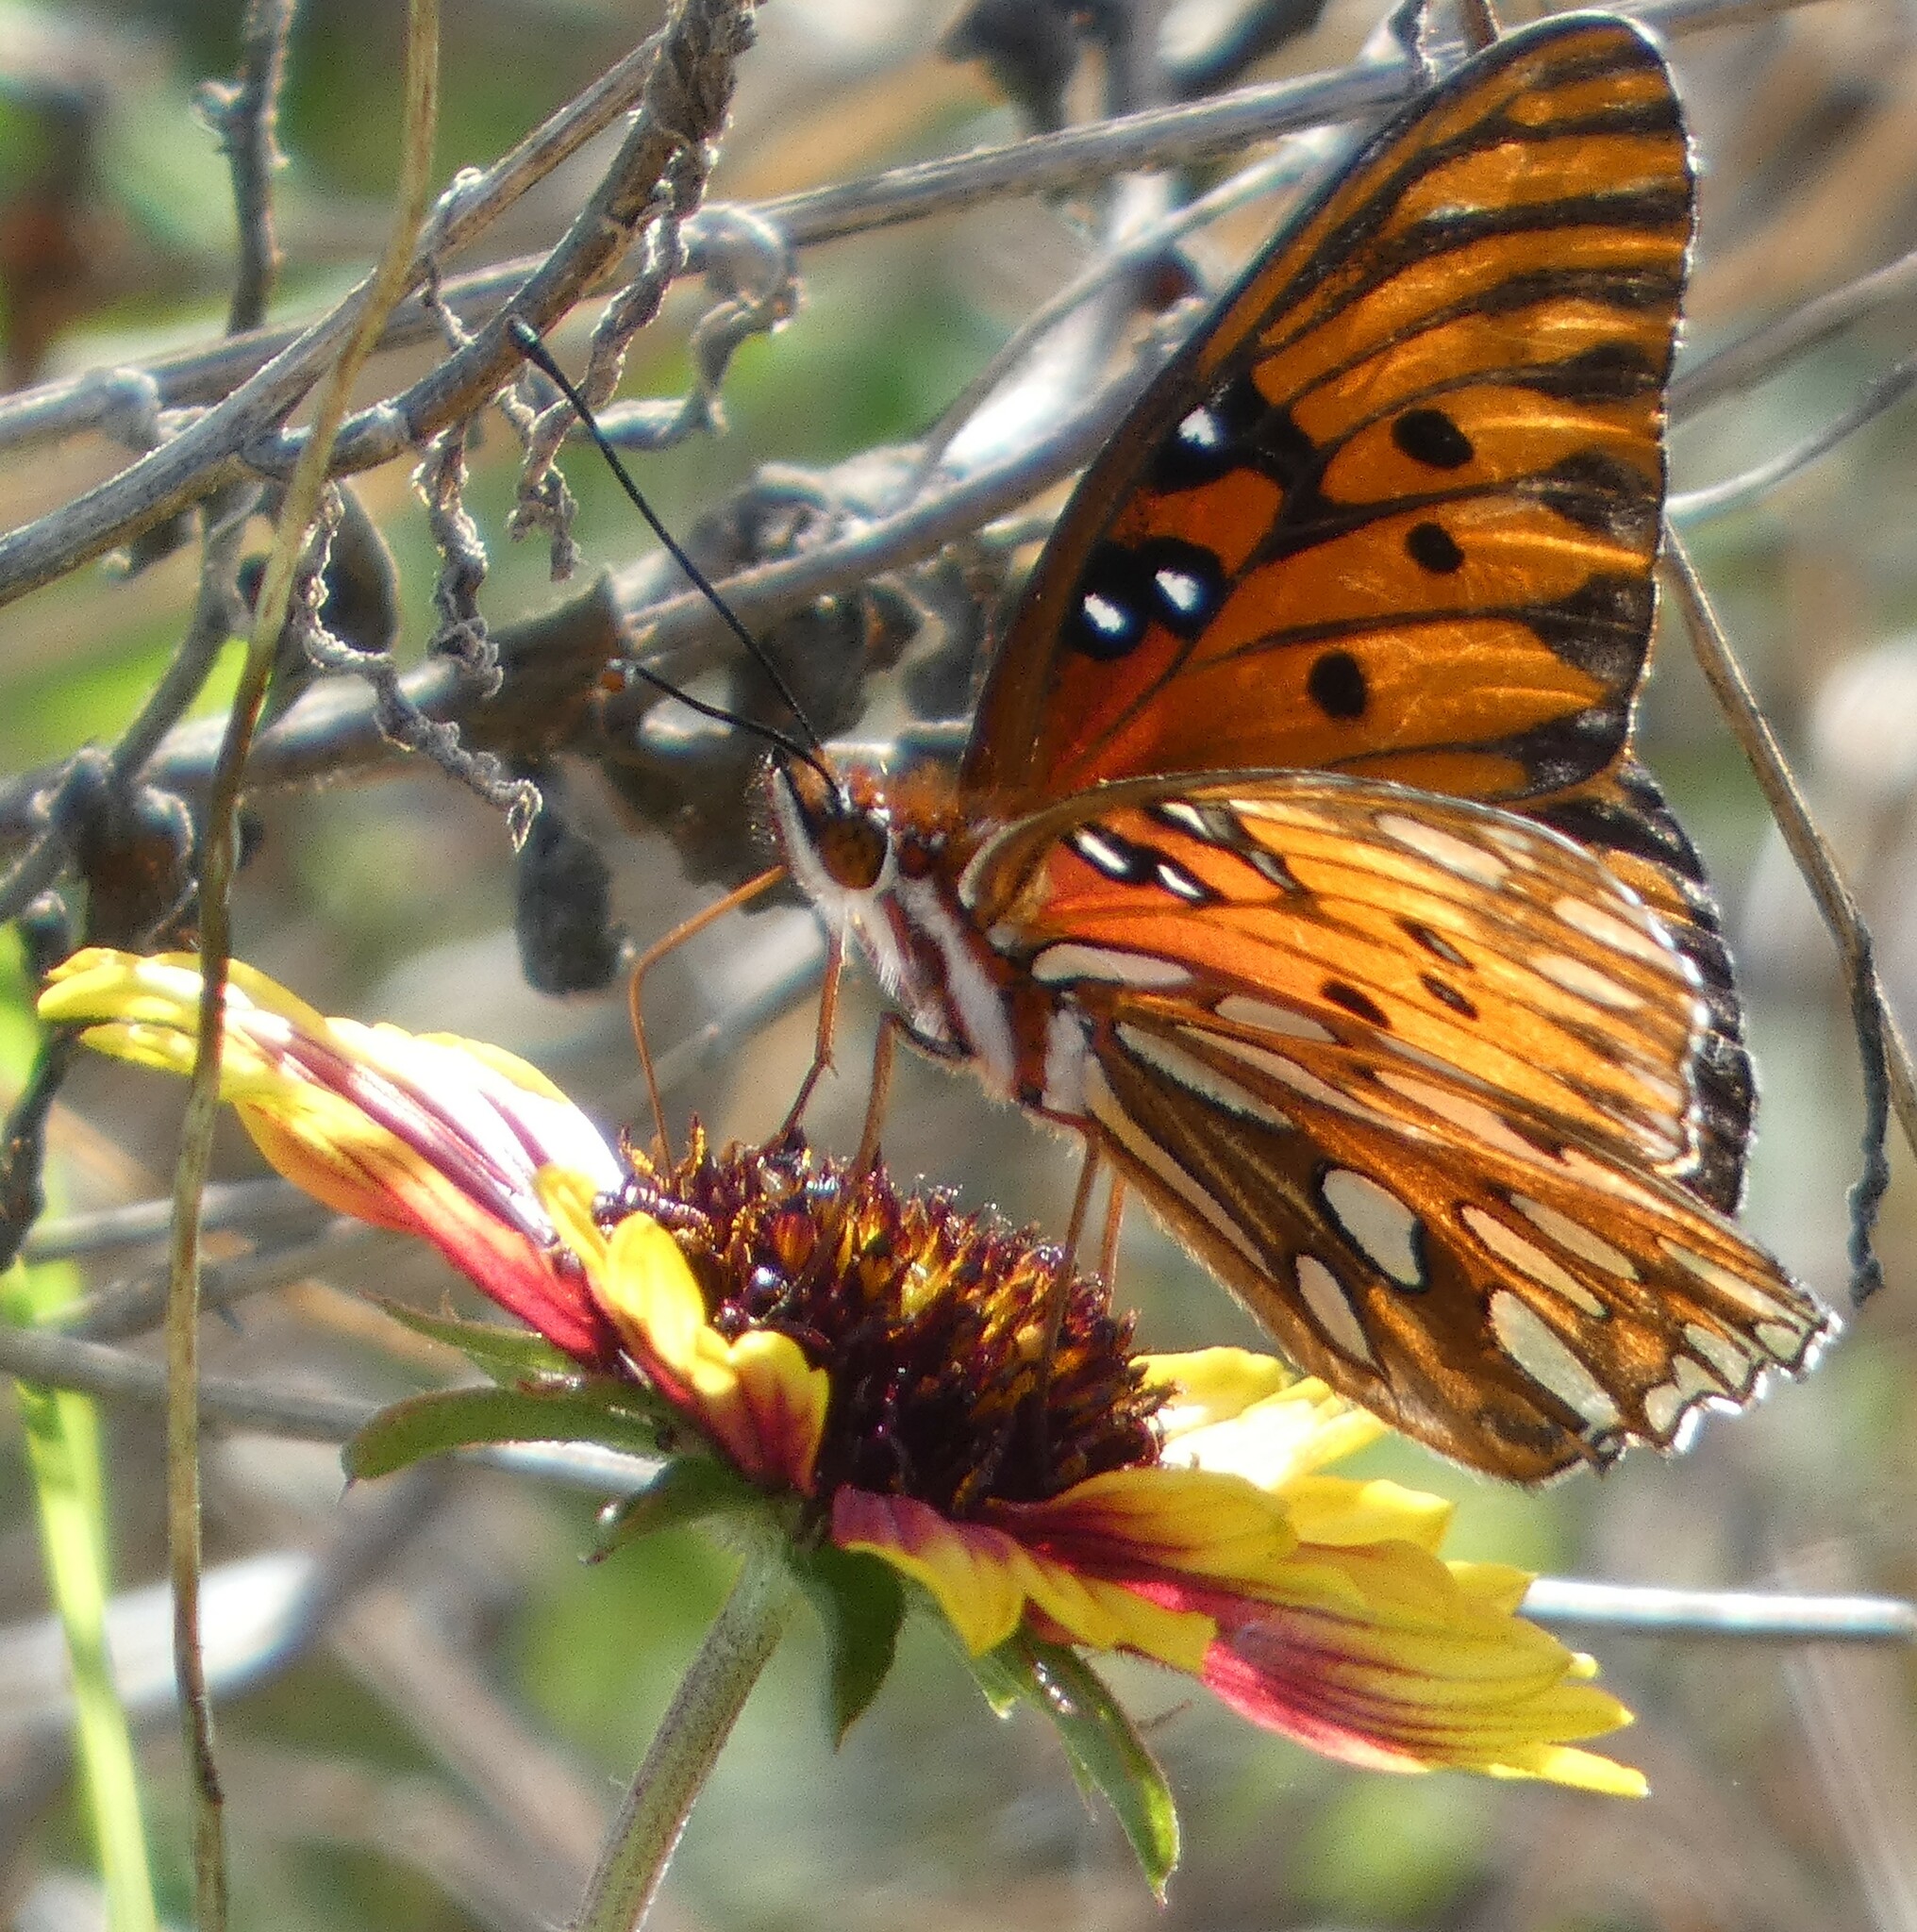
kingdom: Animalia
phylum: Arthropoda
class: Insecta
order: Lepidoptera
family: Nymphalidae
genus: Dione
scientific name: Dione vanillae
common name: Gulf fritillary
